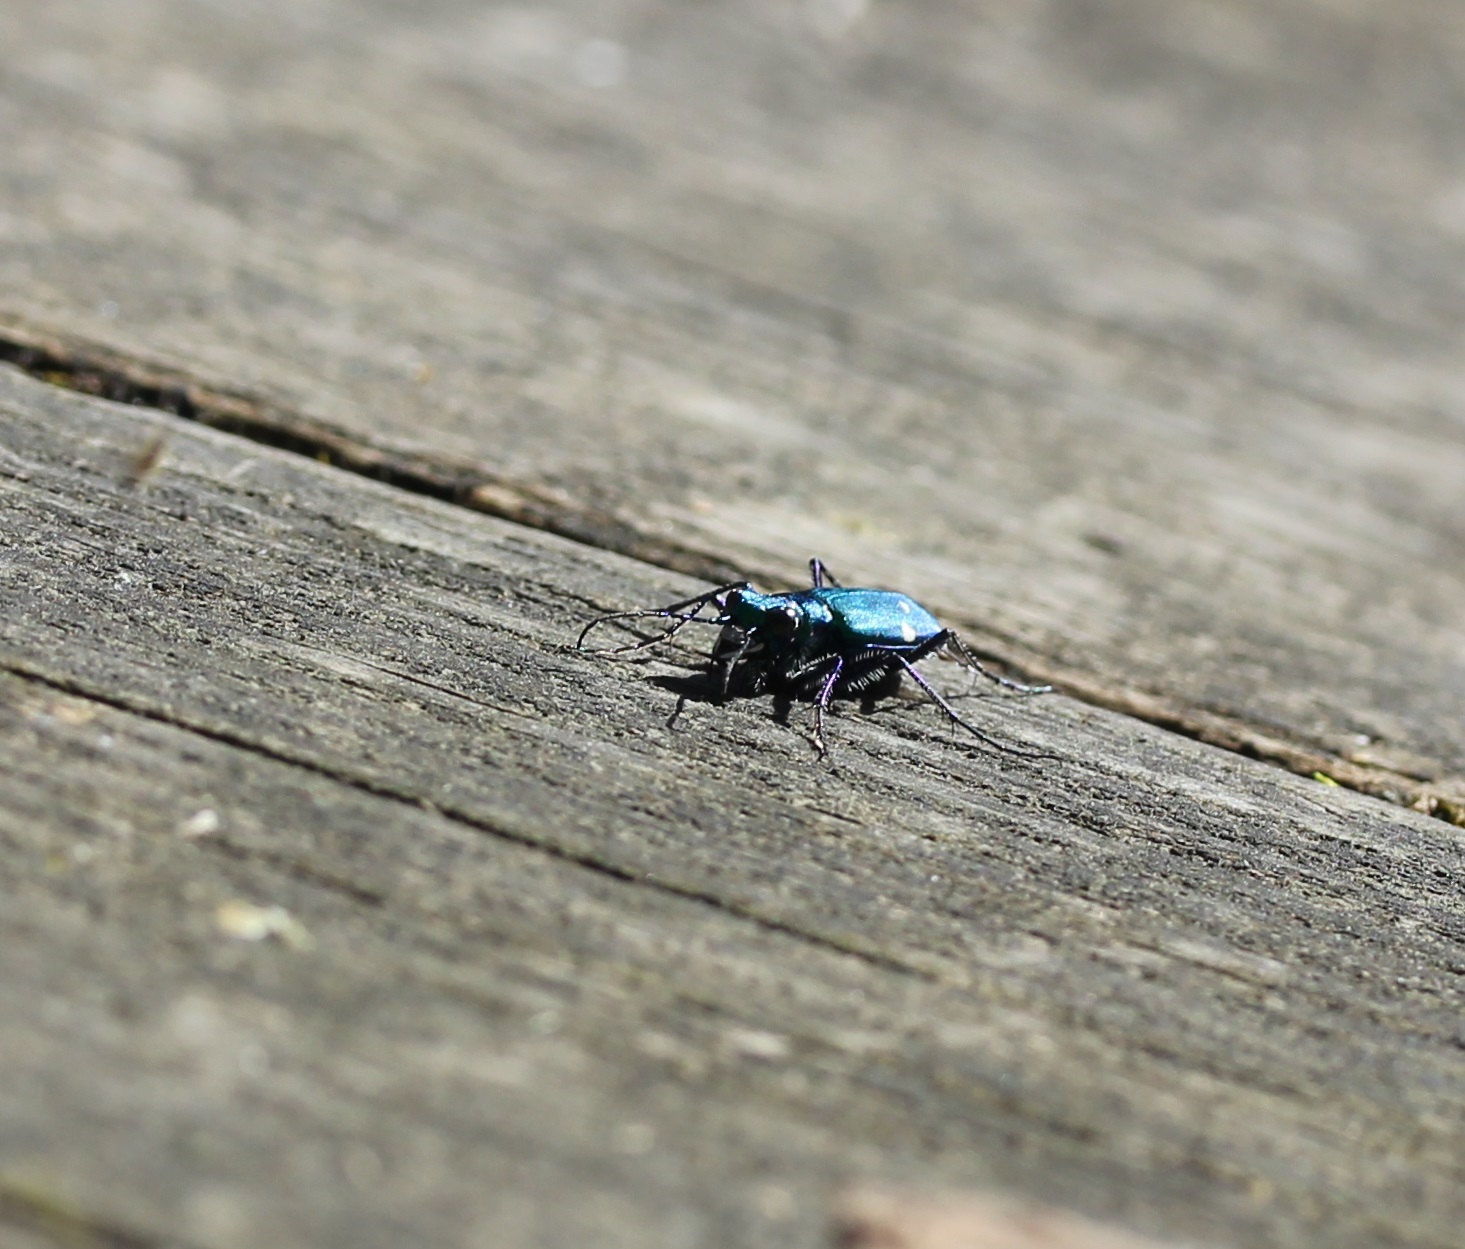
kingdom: Animalia
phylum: Arthropoda
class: Insecta
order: Coleoptera
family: Carabidae
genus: Cicindela
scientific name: Cicindela sexguttata
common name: Six-spotted tiger beetle
